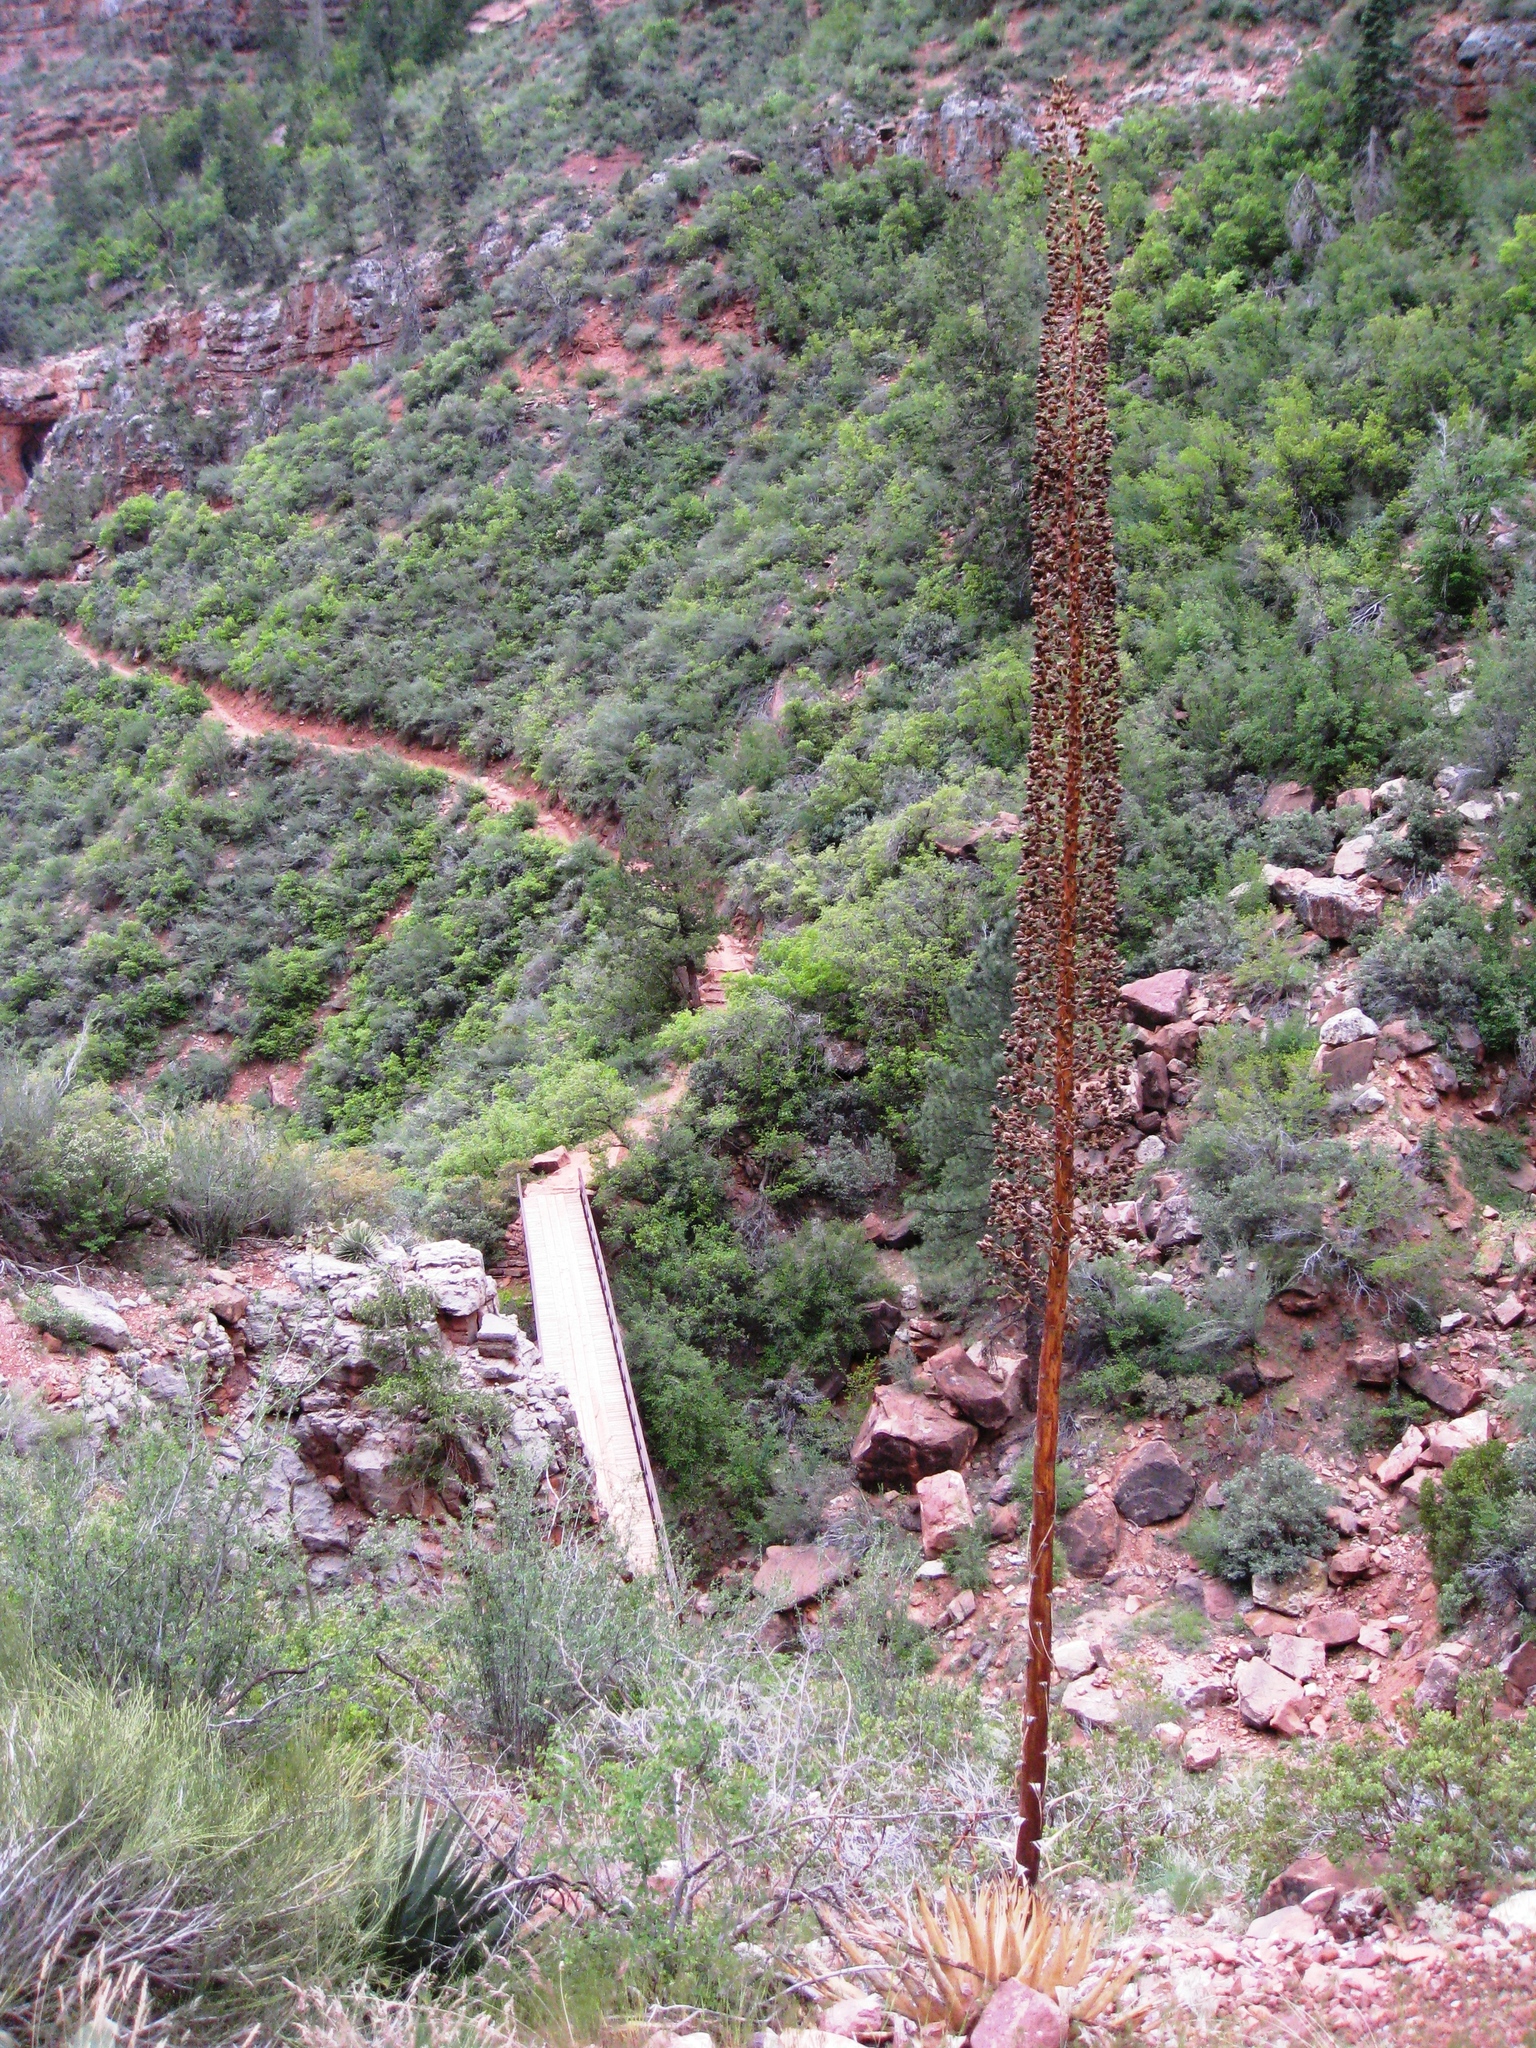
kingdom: Plantae
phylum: Tracheophyta
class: Liliopsida
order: Asparagales
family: Asparagaceae
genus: Agave
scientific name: Agave utahensis
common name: Utah agave
